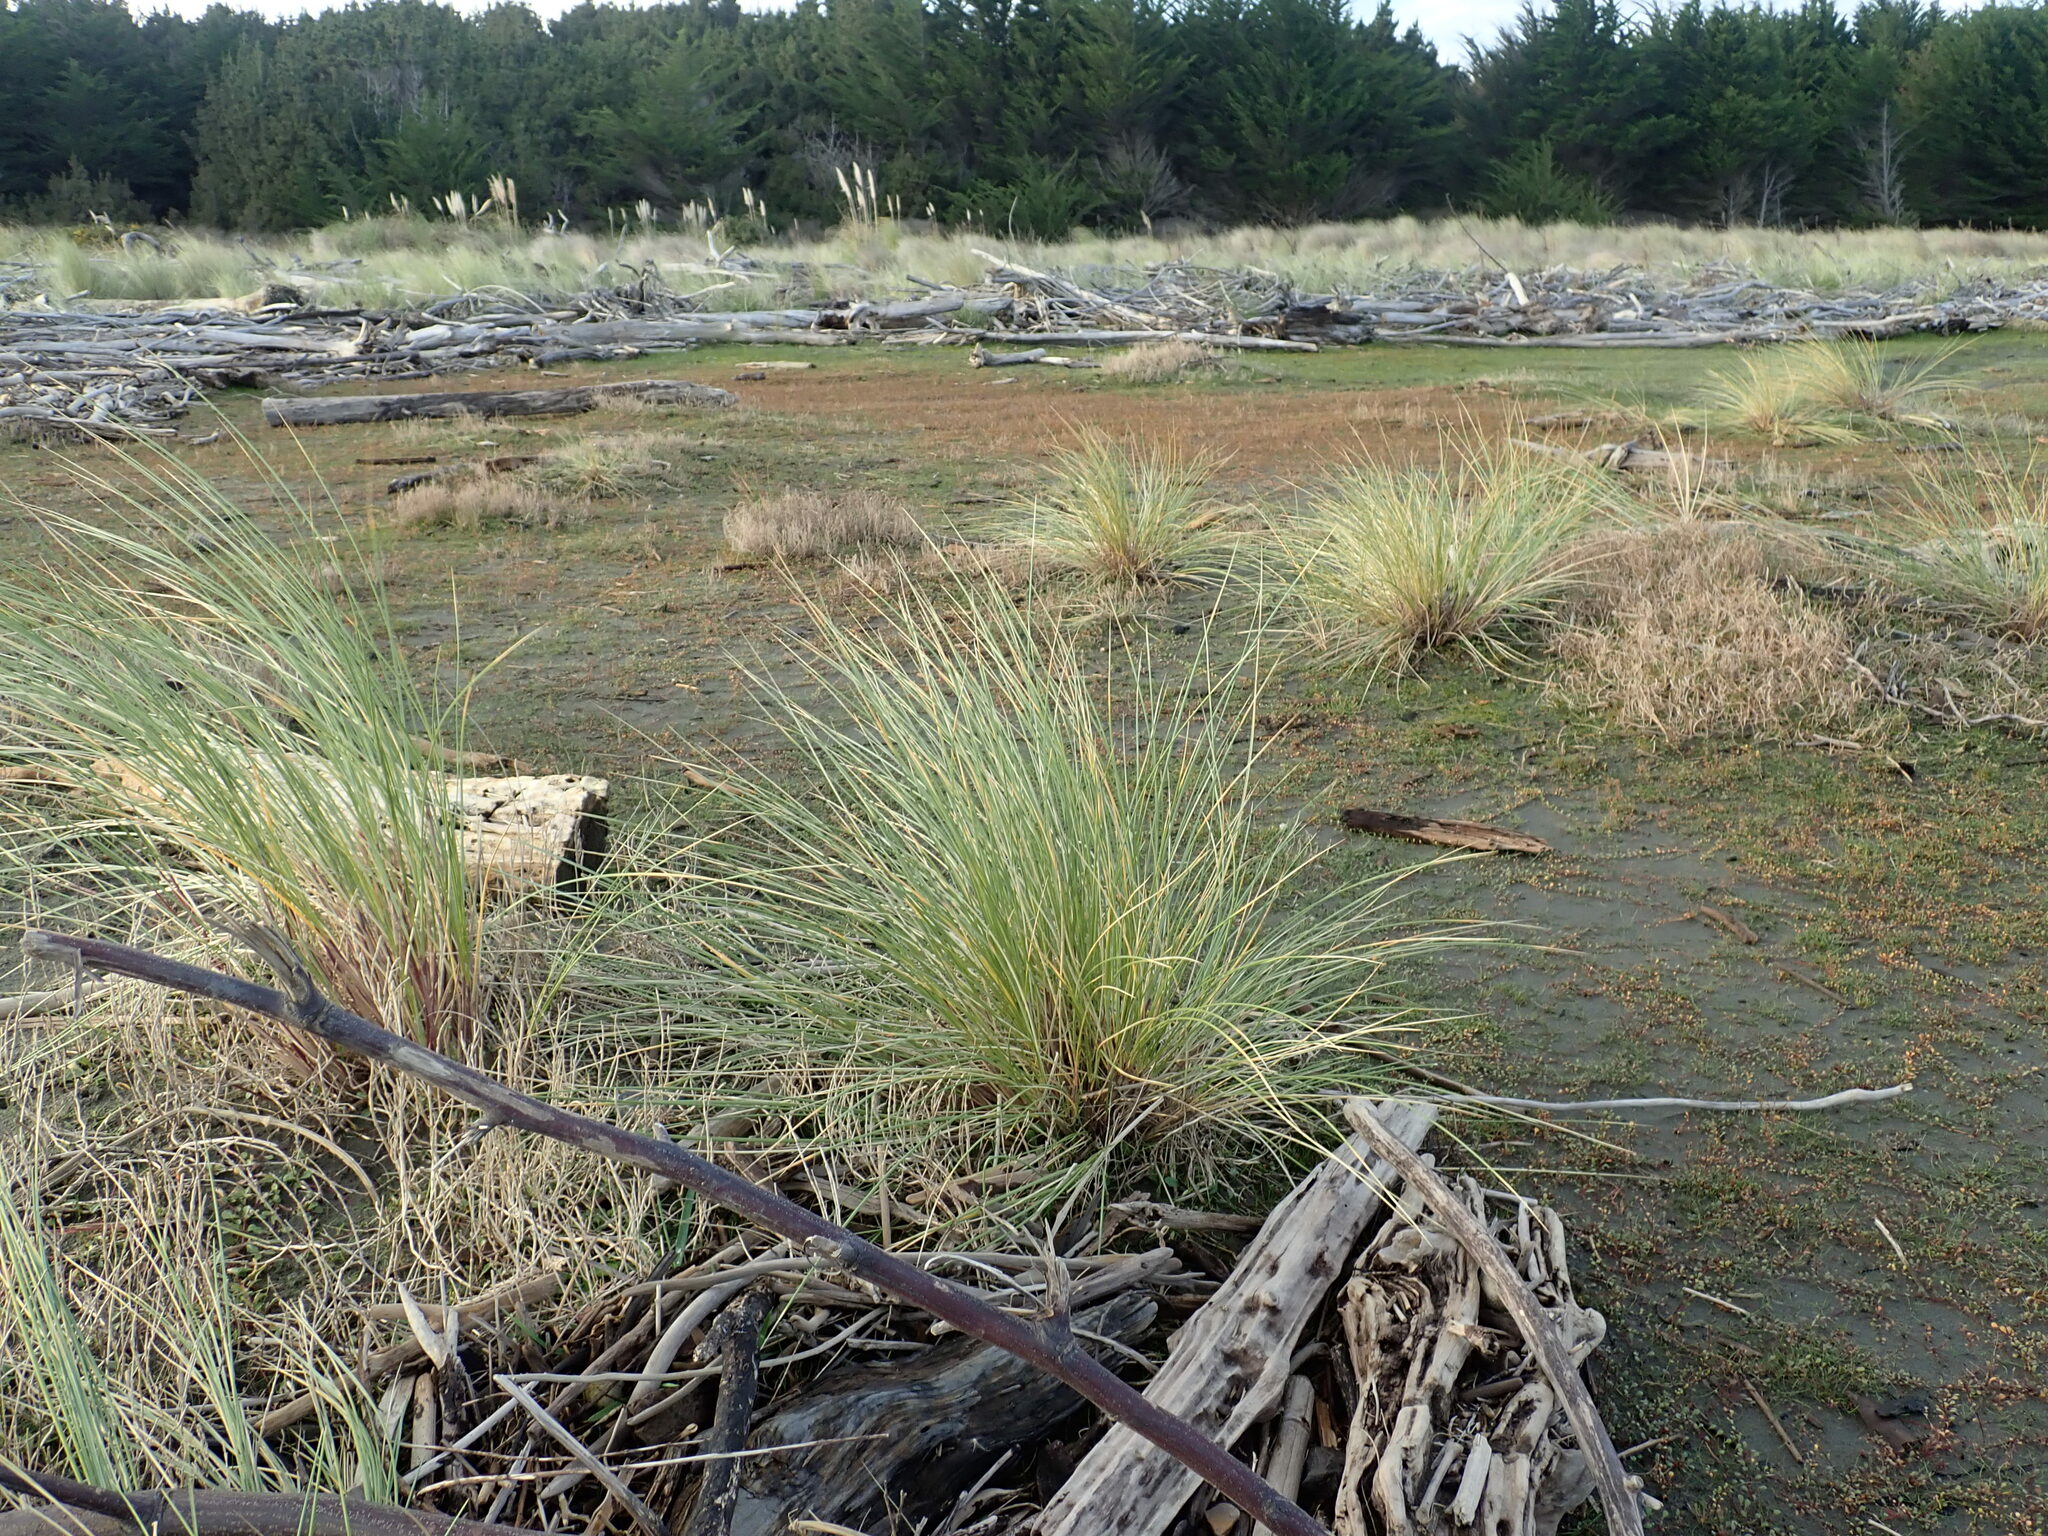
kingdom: Plantae
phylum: Tracheophyta
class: Liliopsida
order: Poales
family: Poaceae
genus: Calamagrostis
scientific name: Calamagrostis arenaria
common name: European beachgrass
